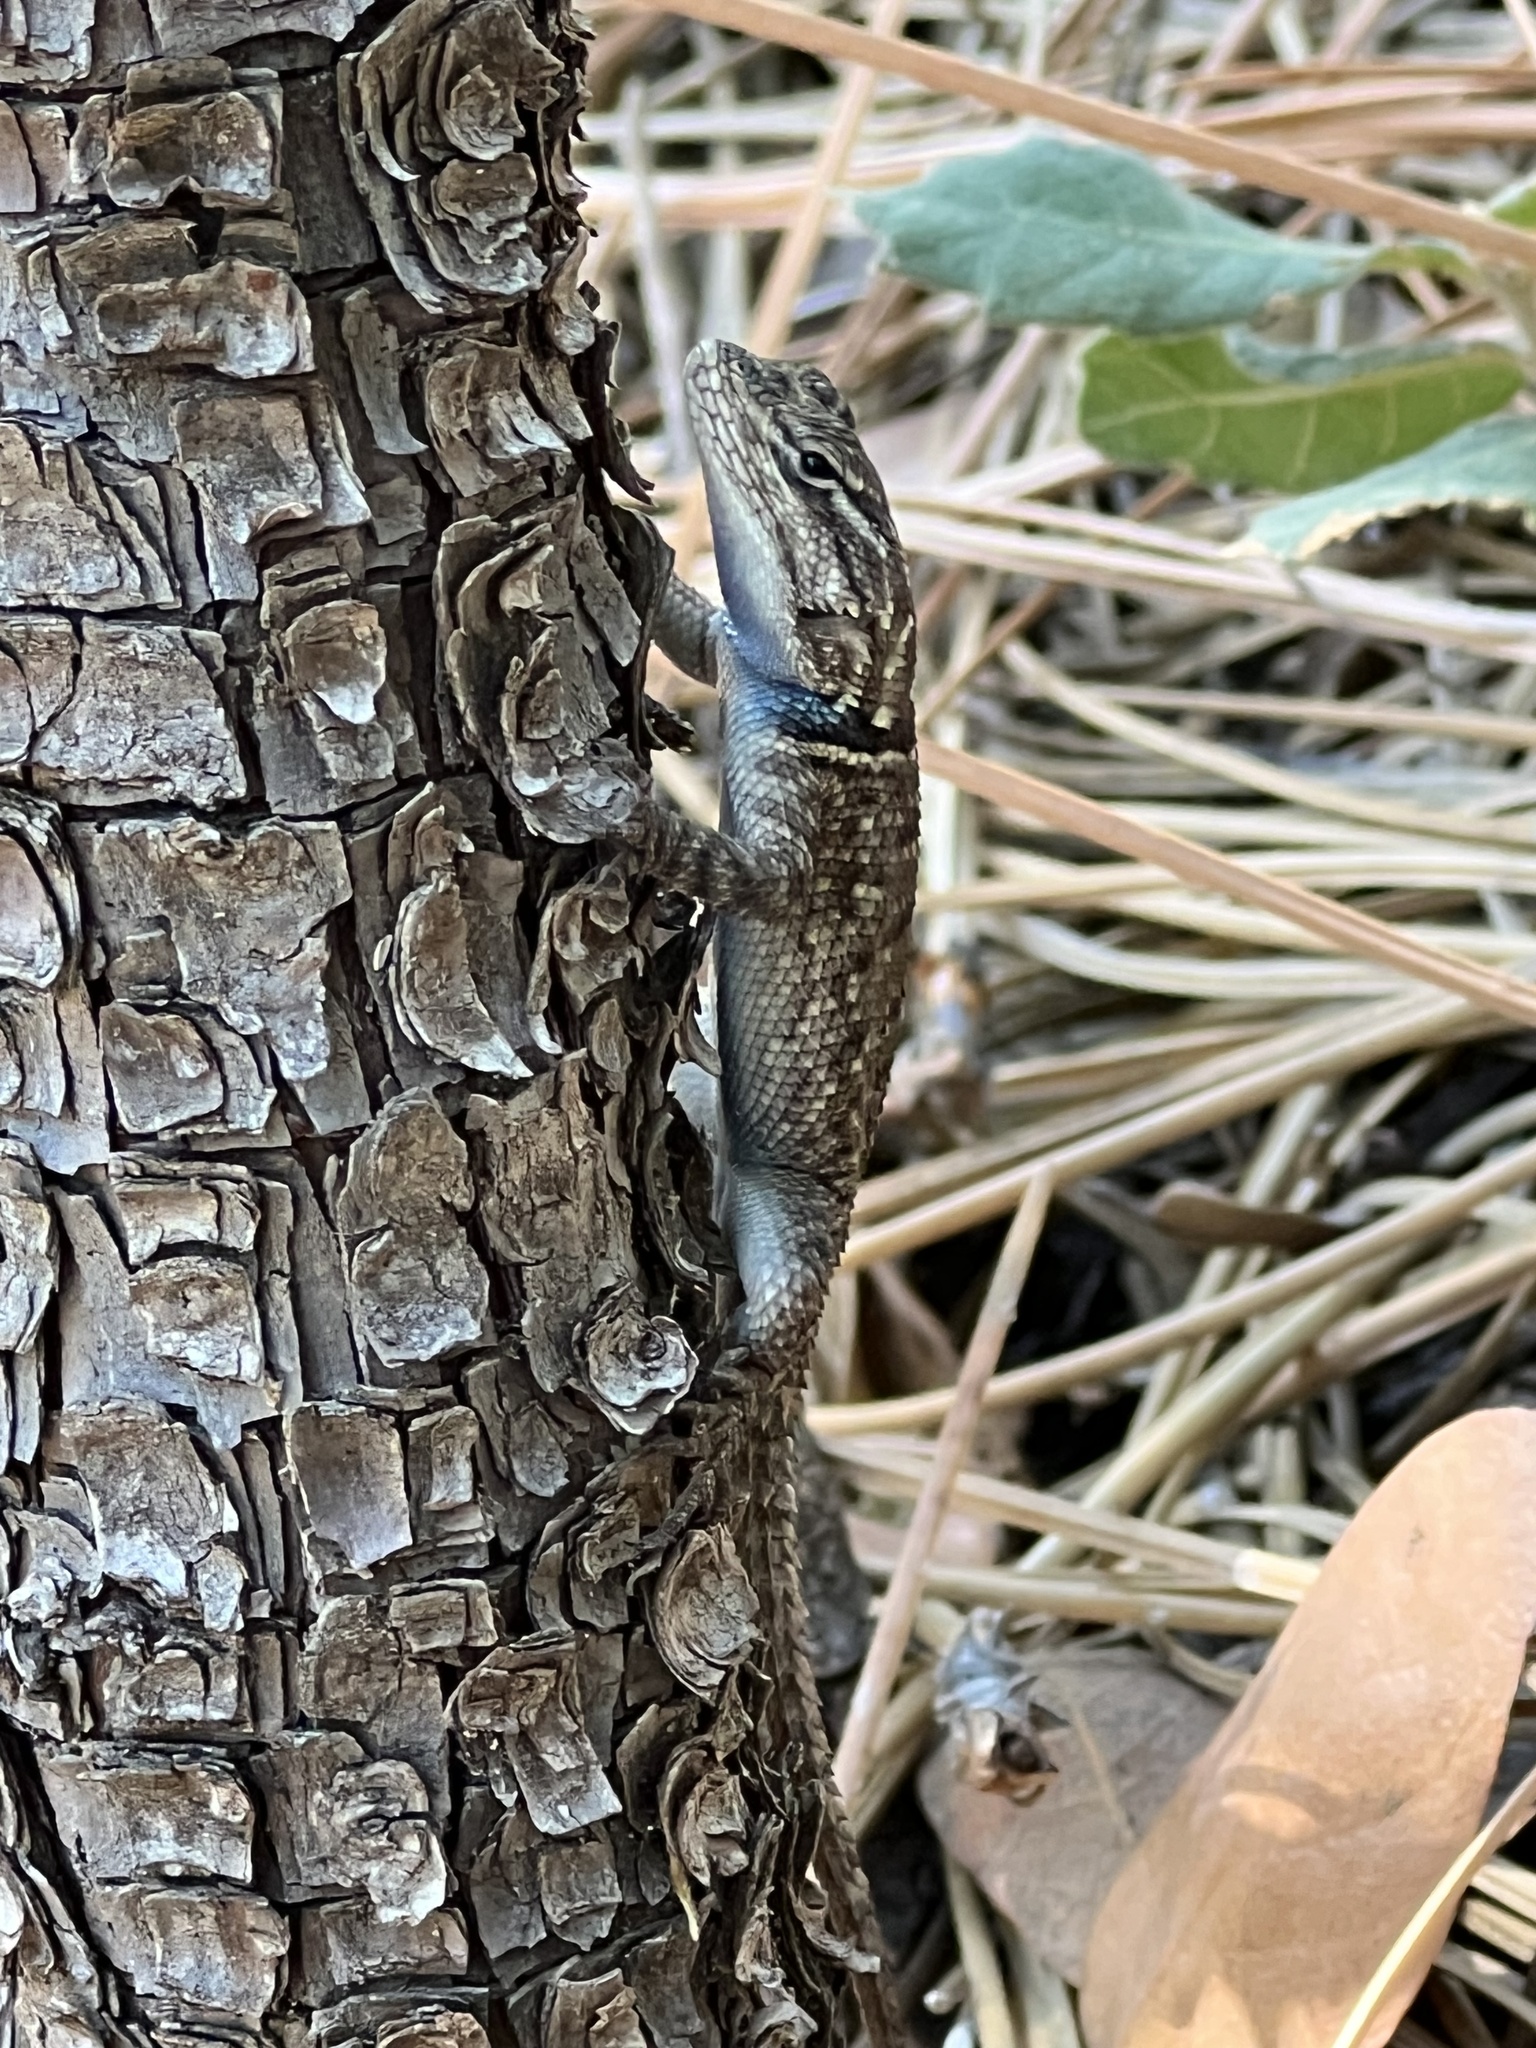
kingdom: Animalia
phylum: Chordata
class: Squamata
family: Phrynosomatidae
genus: Sceloporus
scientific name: Sceloporus jarrovii
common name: Yarrow's spiny lizard
